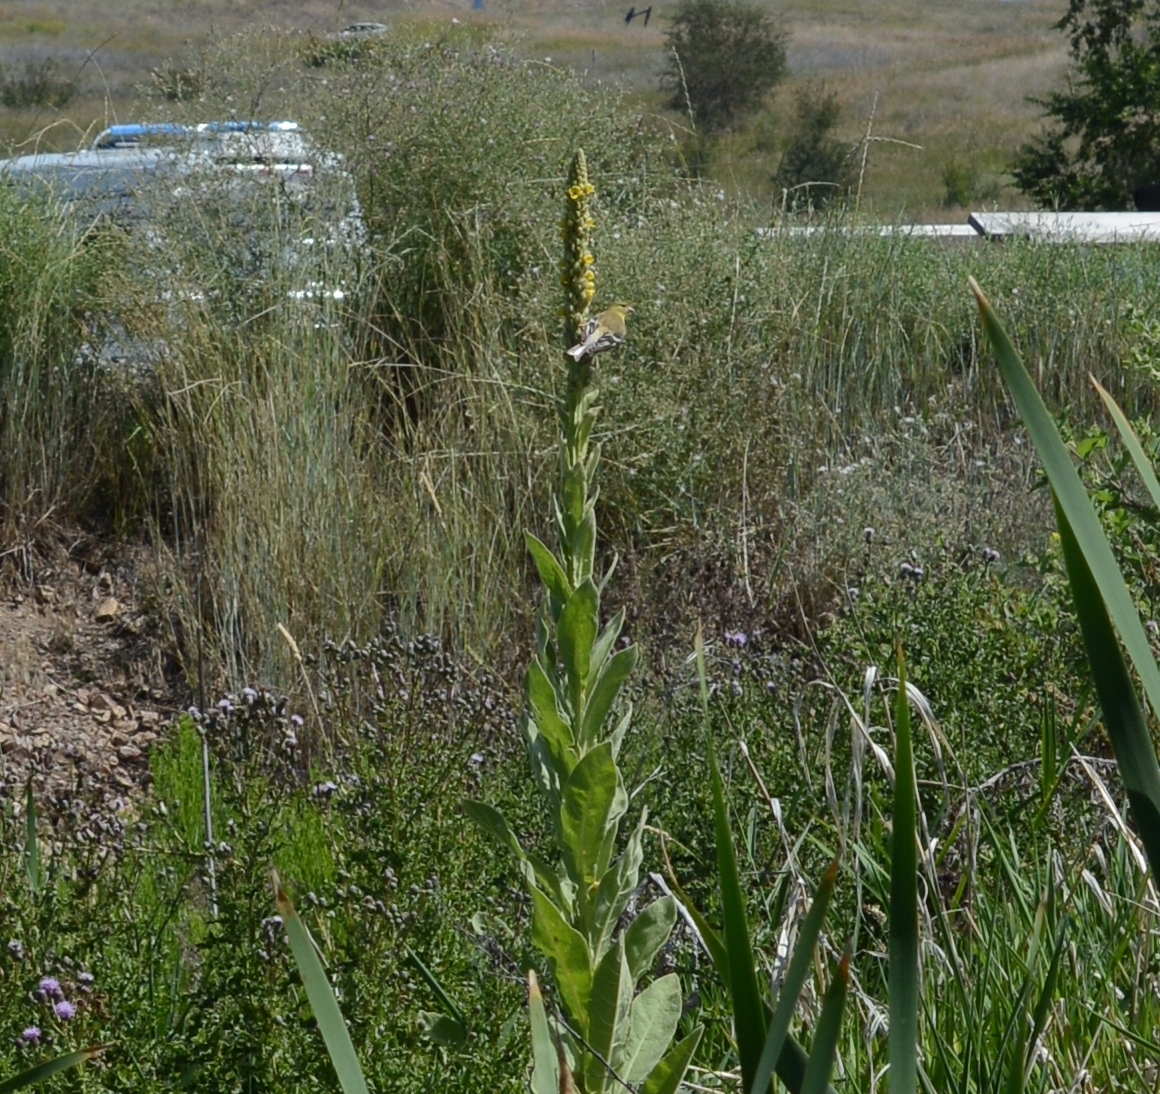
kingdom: Animalia
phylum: Chordata
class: Aves
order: Passeriformes
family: Fringillidae
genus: Spinus
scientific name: Spinus tristis
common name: American goldfinch
